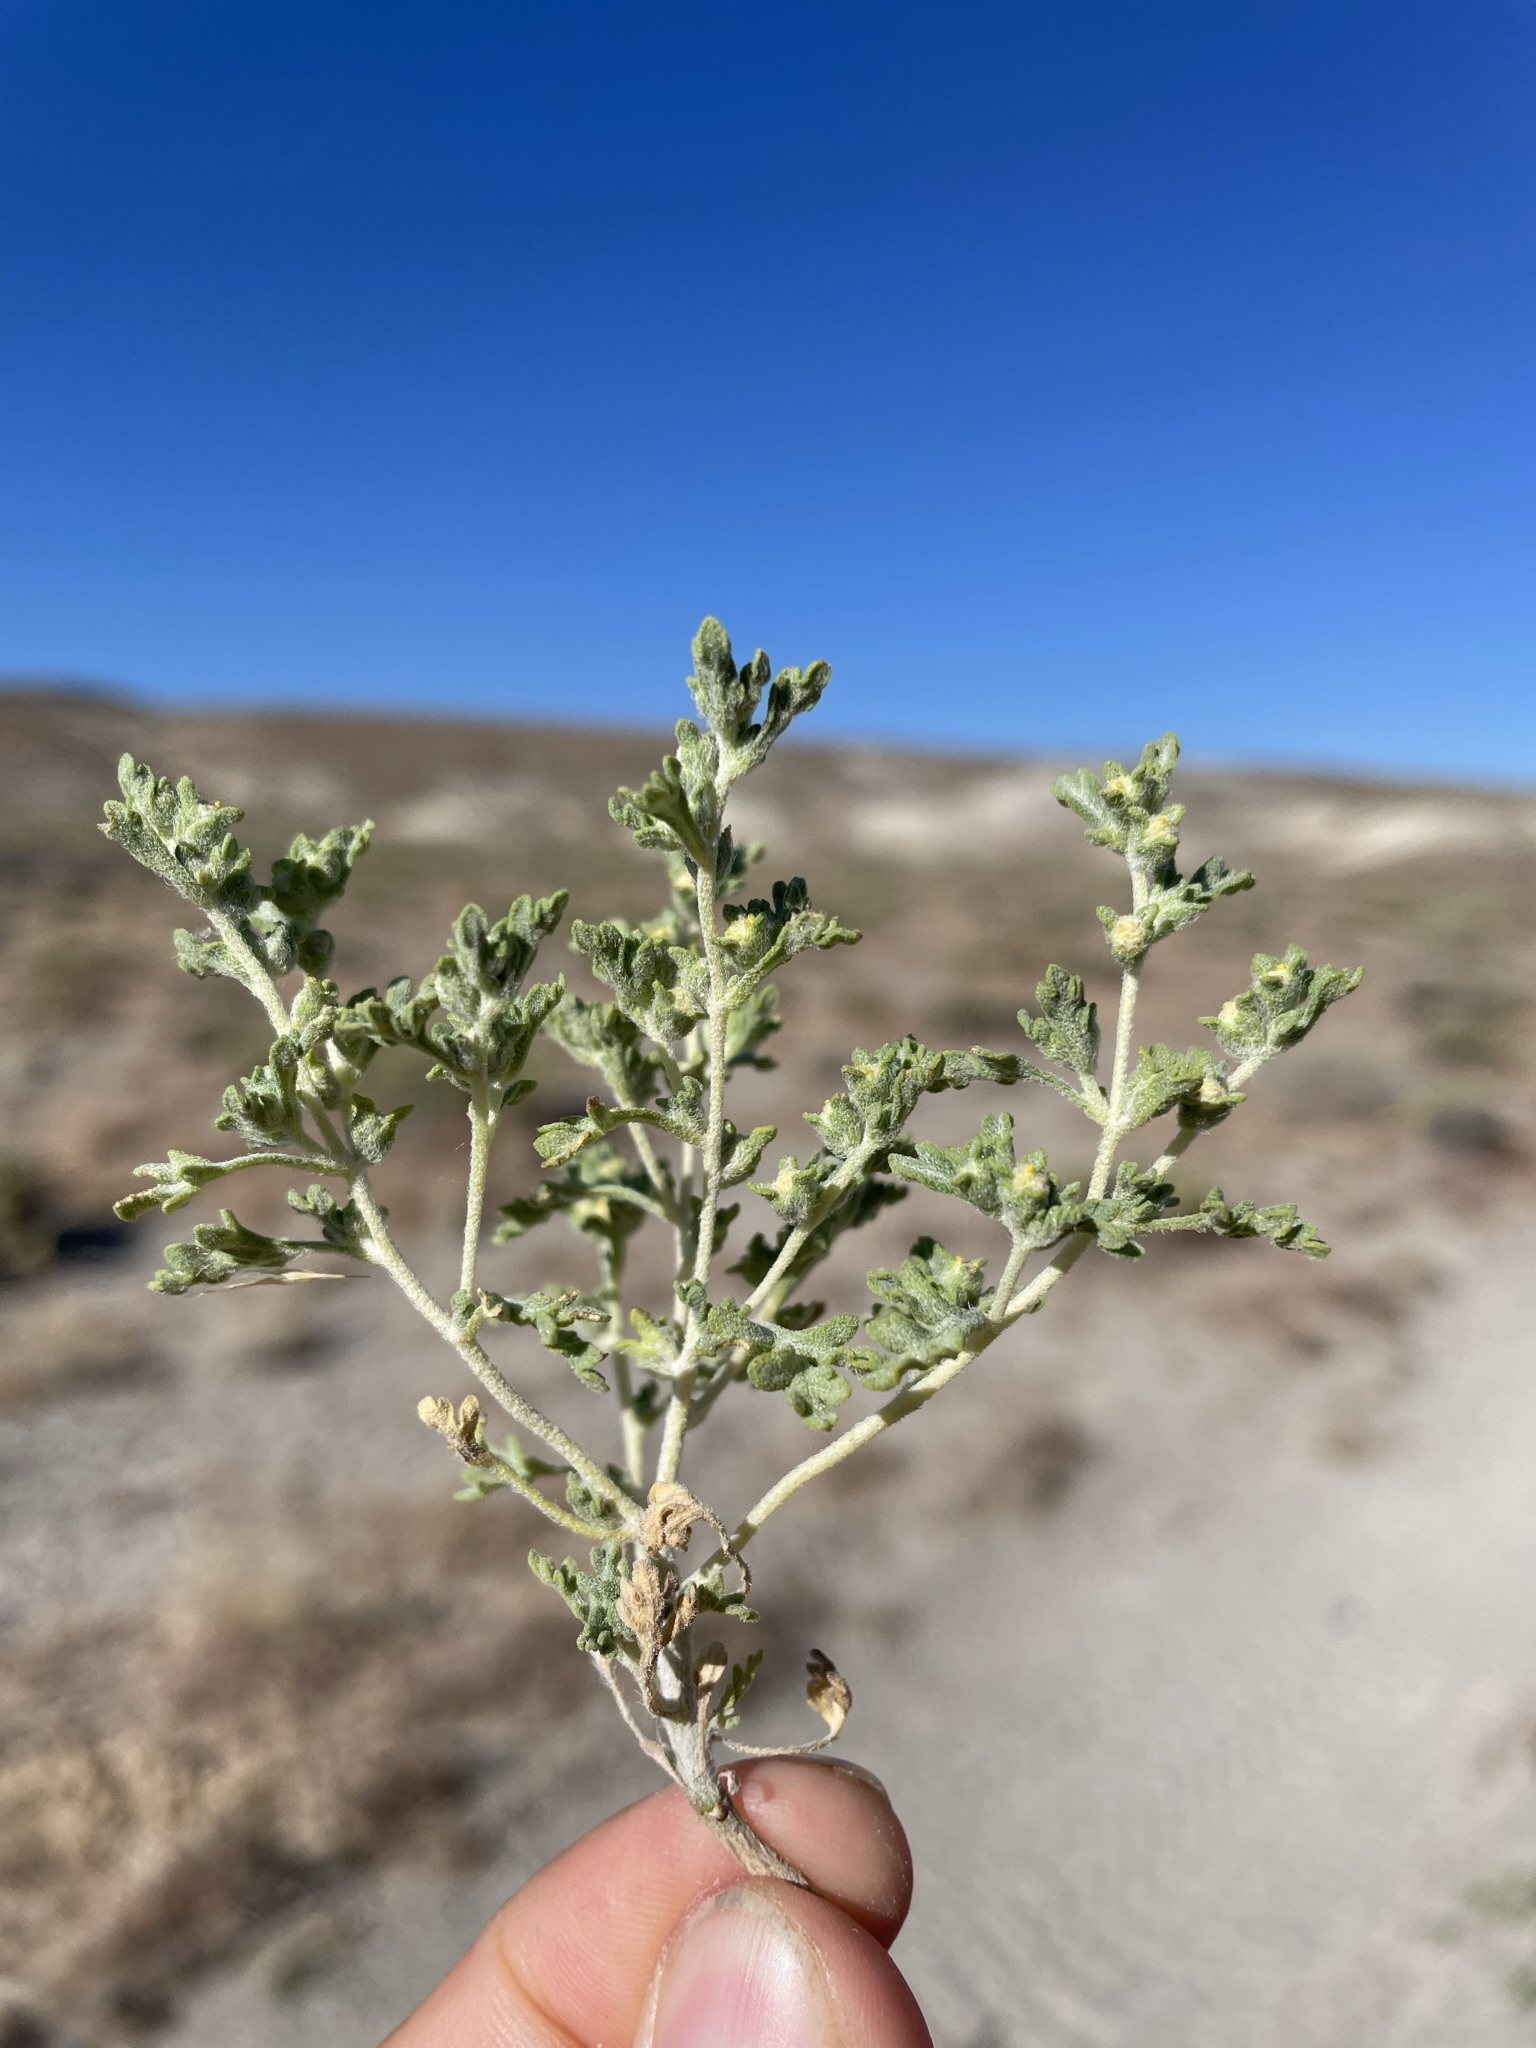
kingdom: Plantae
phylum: Tracheophyta
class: Magnoliopsida
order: Asterales
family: Asteraceae
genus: Euphrosyne
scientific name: Euphrosyne nevadensis
